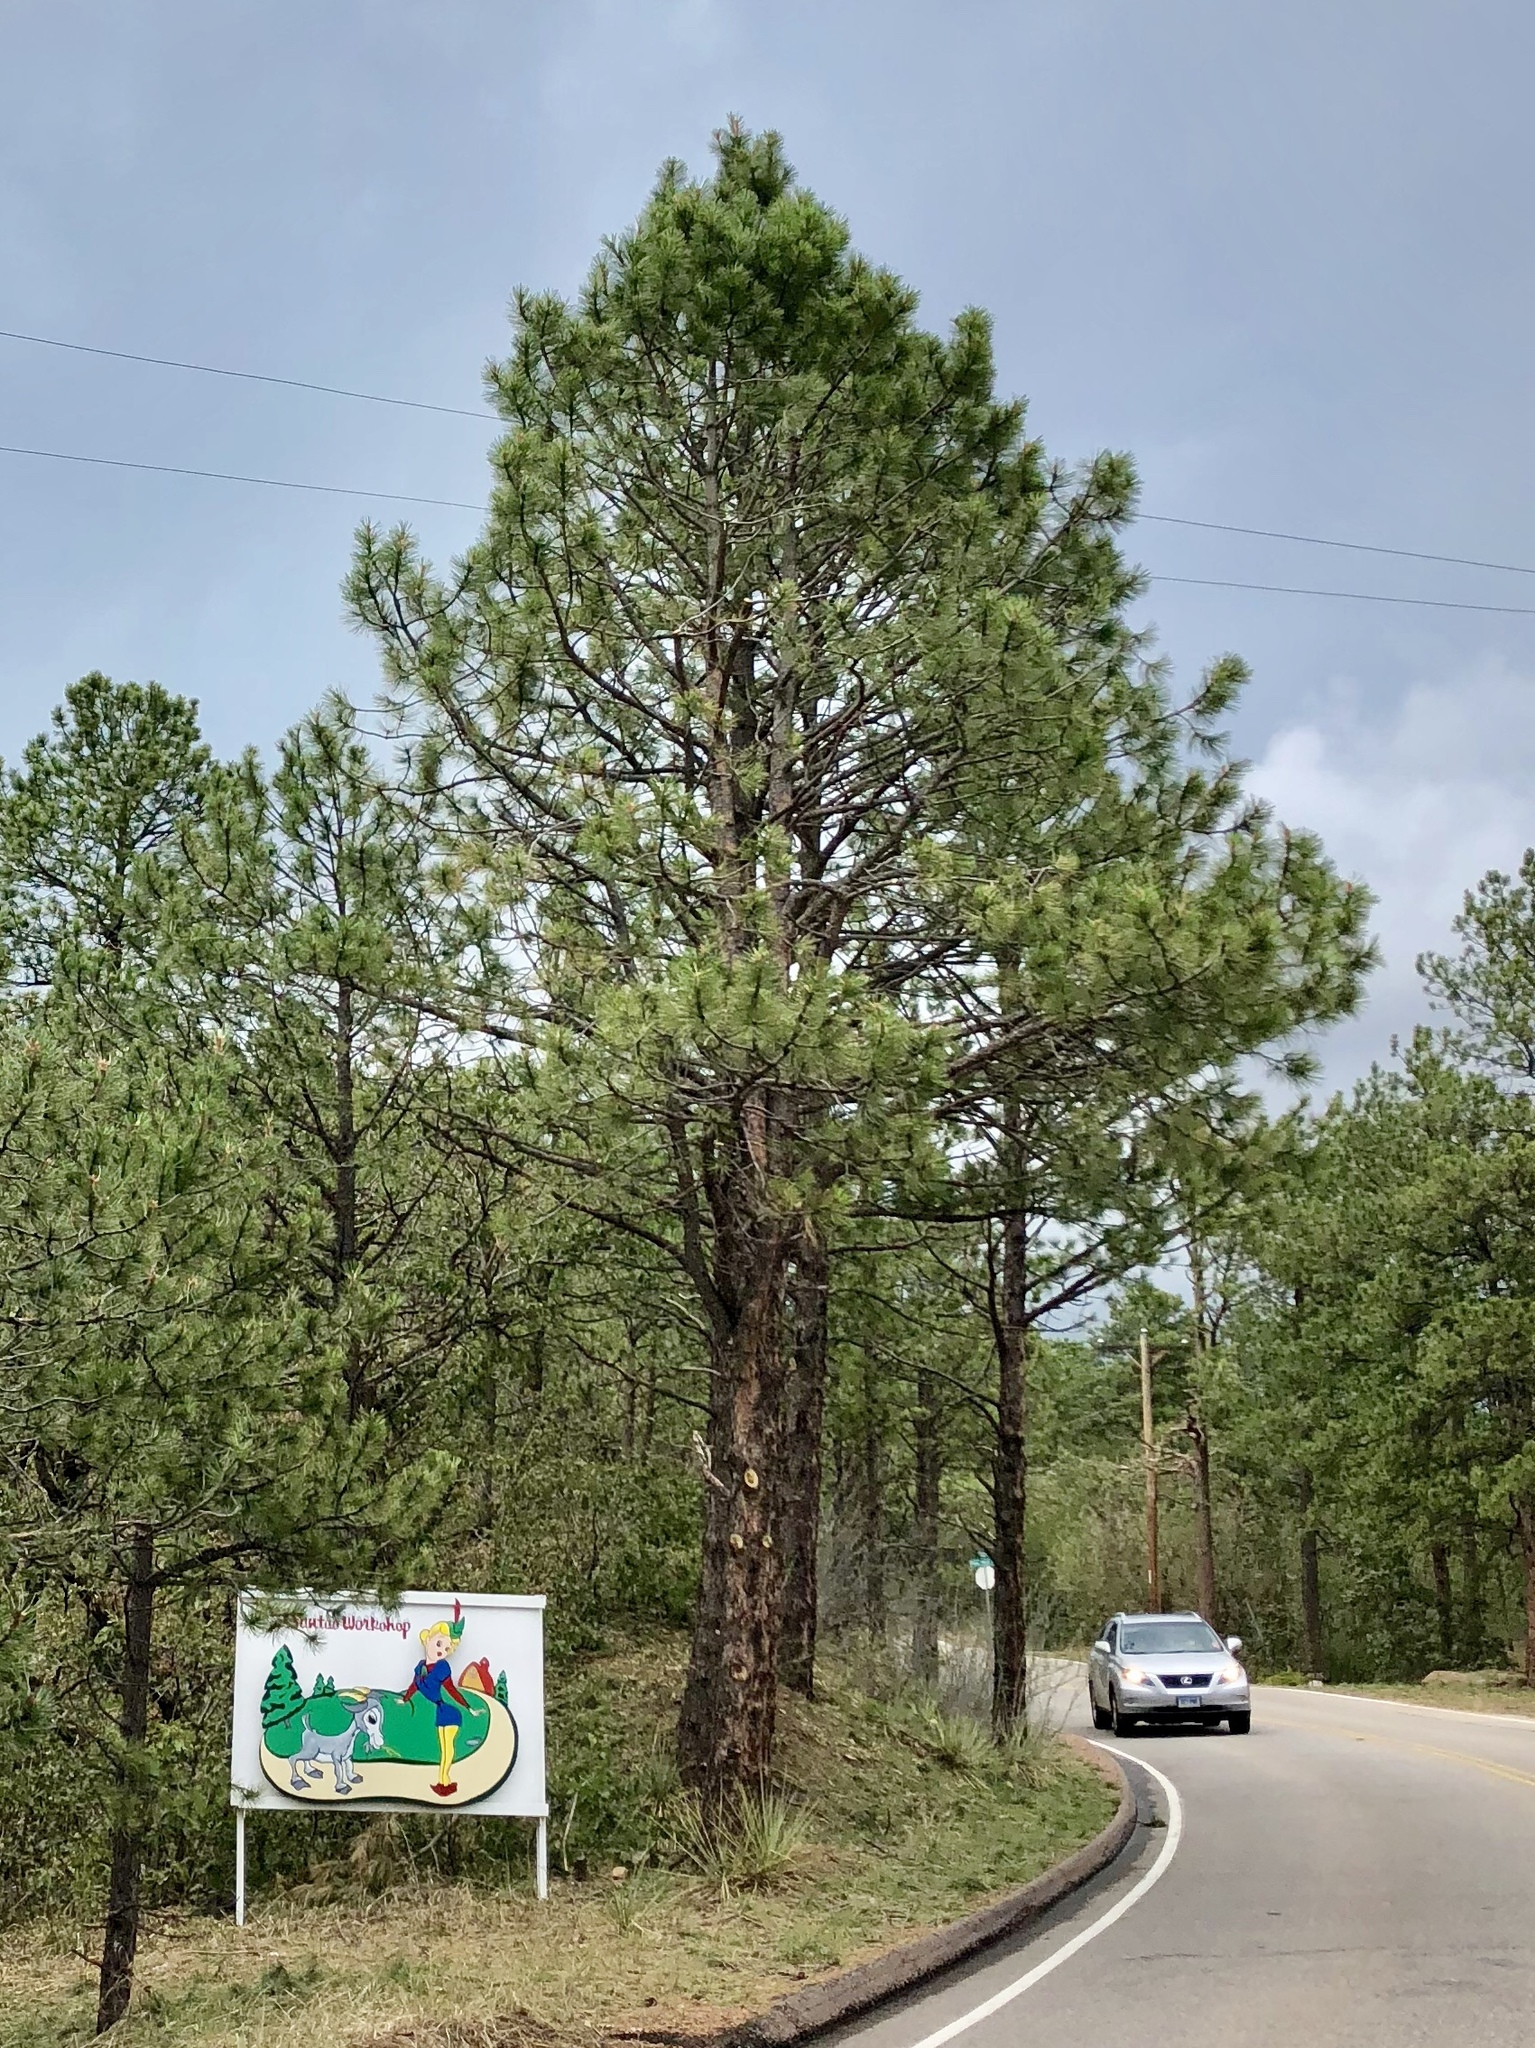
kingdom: Plantae
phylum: Tracheophyta
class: Pinopsida
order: Pinales
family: Pinaceae
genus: Pinus
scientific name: Pinus ponderosa
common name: Western yellow-pine
